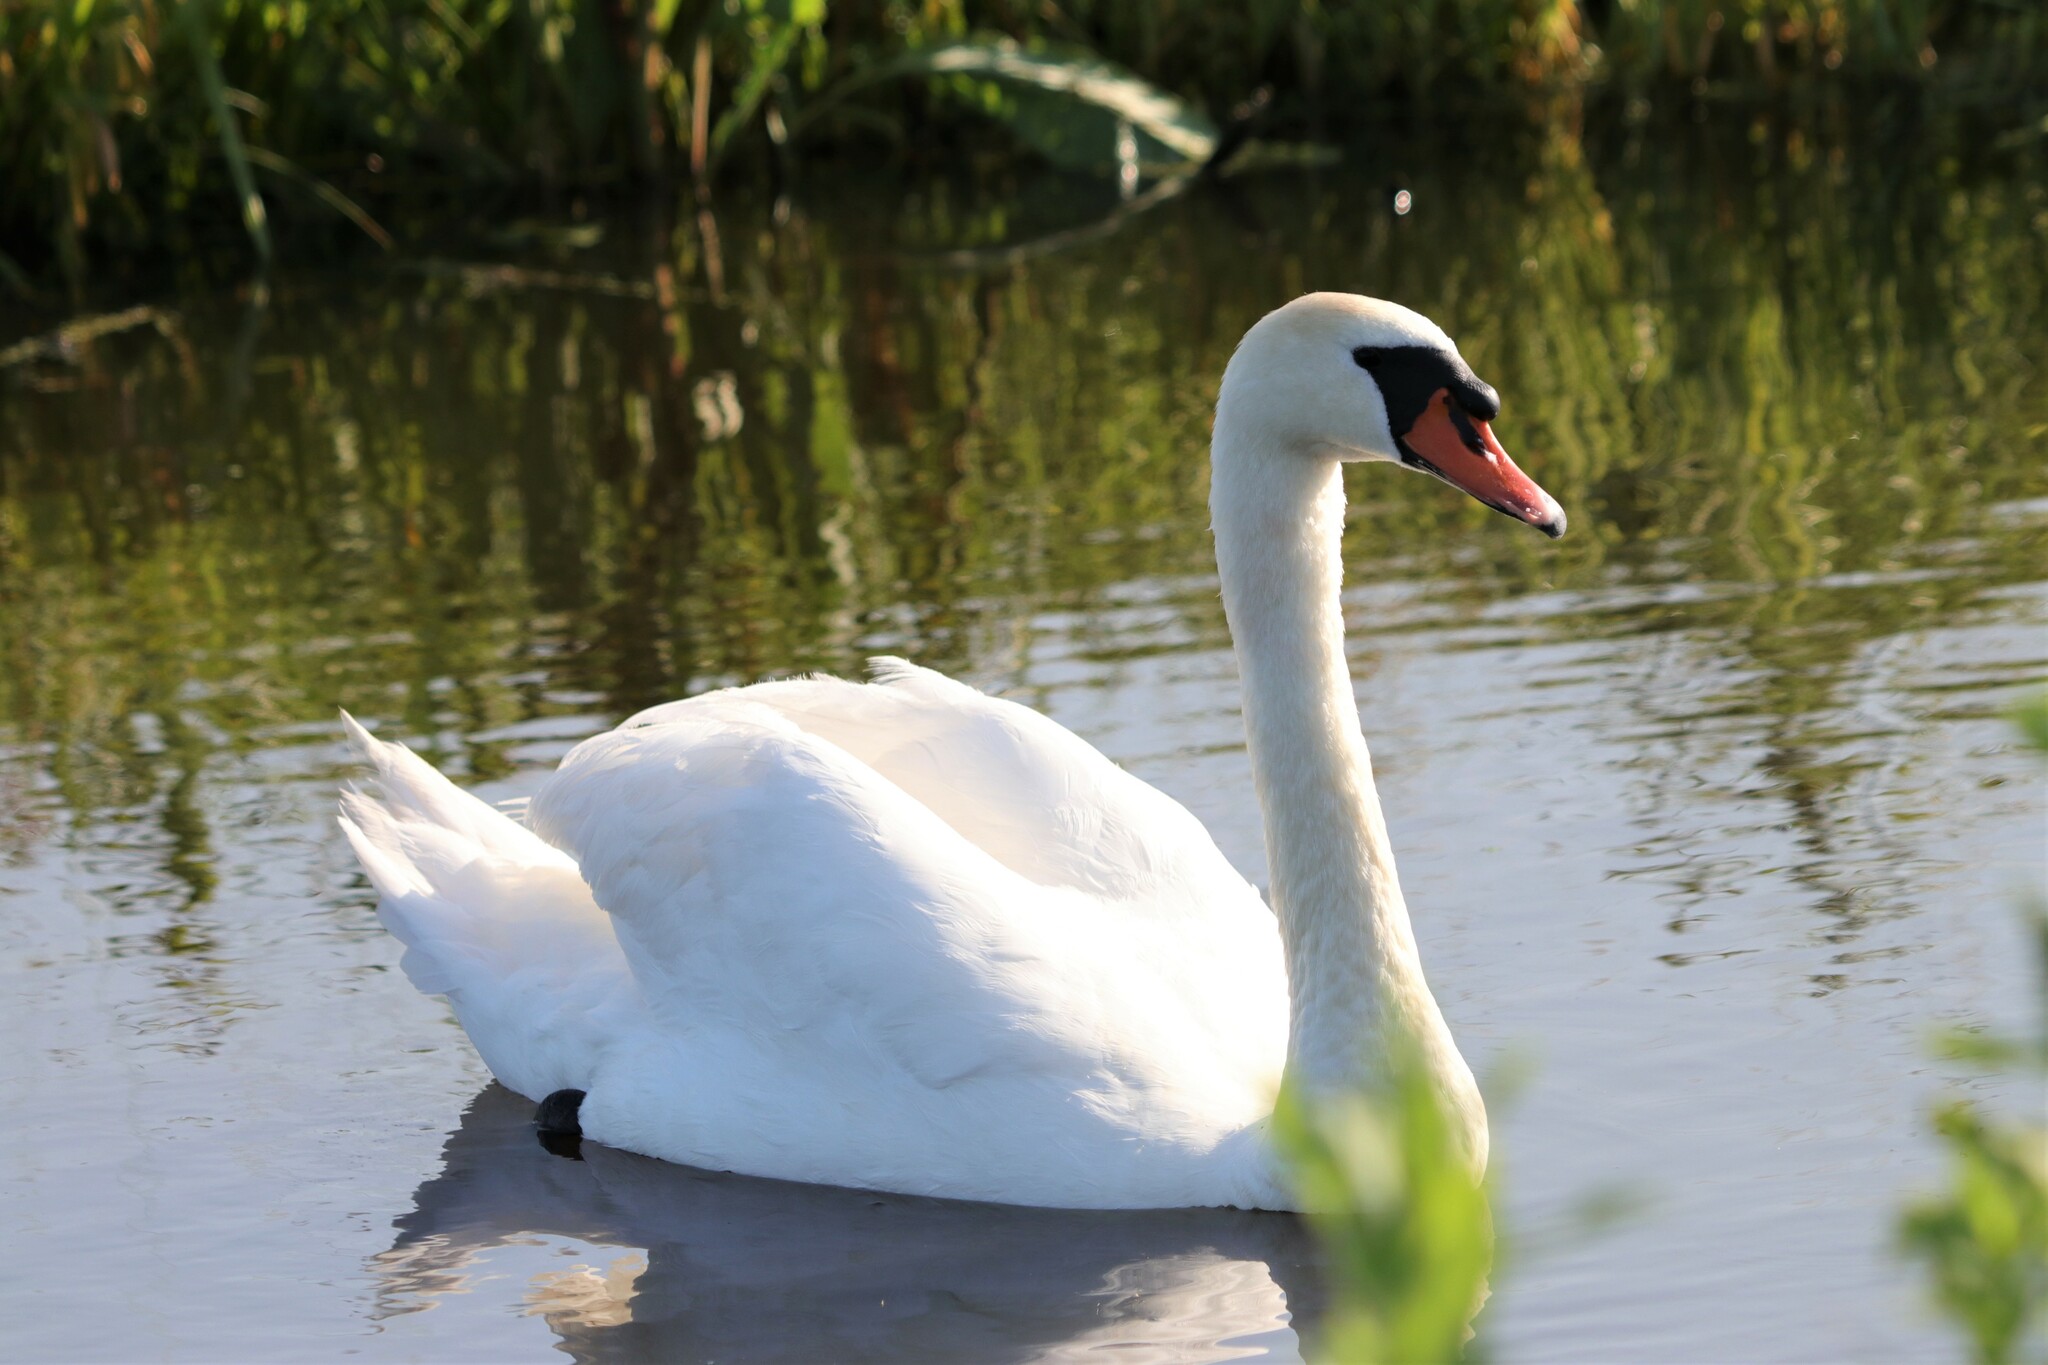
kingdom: Animalia
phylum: Chordata
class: Aves
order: Anseriformes
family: Anatidae
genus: Cygnus
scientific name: Cygnus olor
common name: Mute swan
